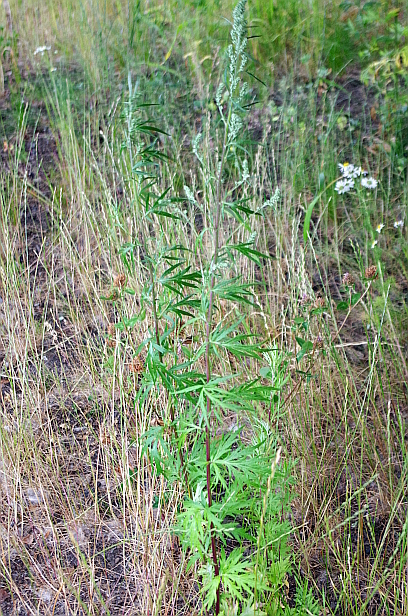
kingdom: Plantae
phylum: Tracheophyta
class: Magnoliopsida
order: Asterales
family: Asteraceae
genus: Artemisia
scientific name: Artemisia vulgaris
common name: Mugwort
